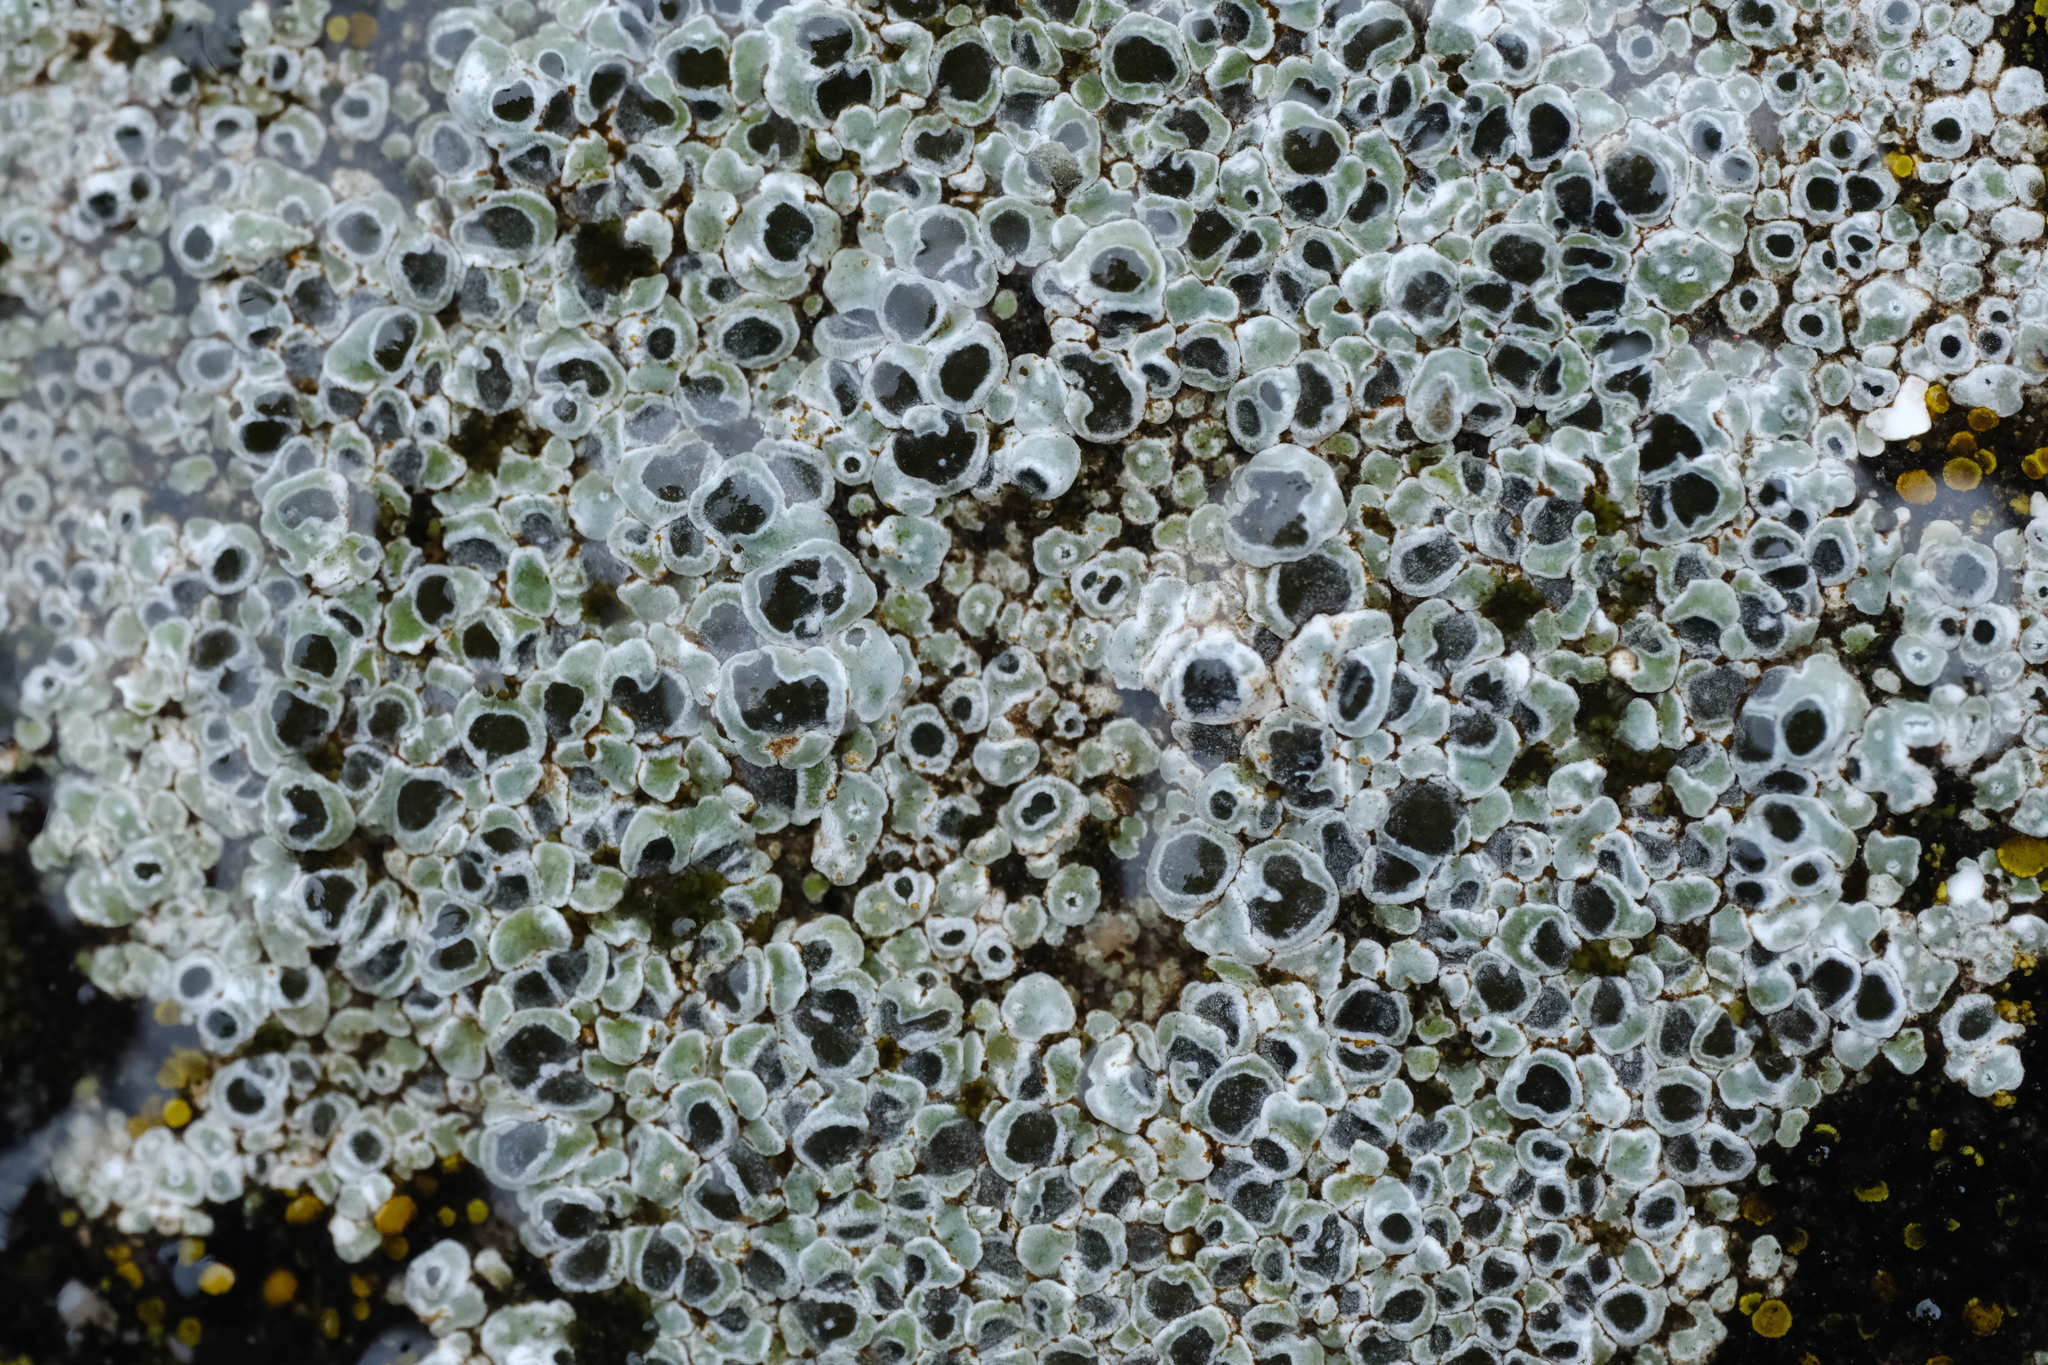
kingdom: Fungi
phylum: Ascomycota
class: Lecanoromycetes
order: Pertusariales
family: Megasporaceae
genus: Circinaria
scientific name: Circinaria contorta
